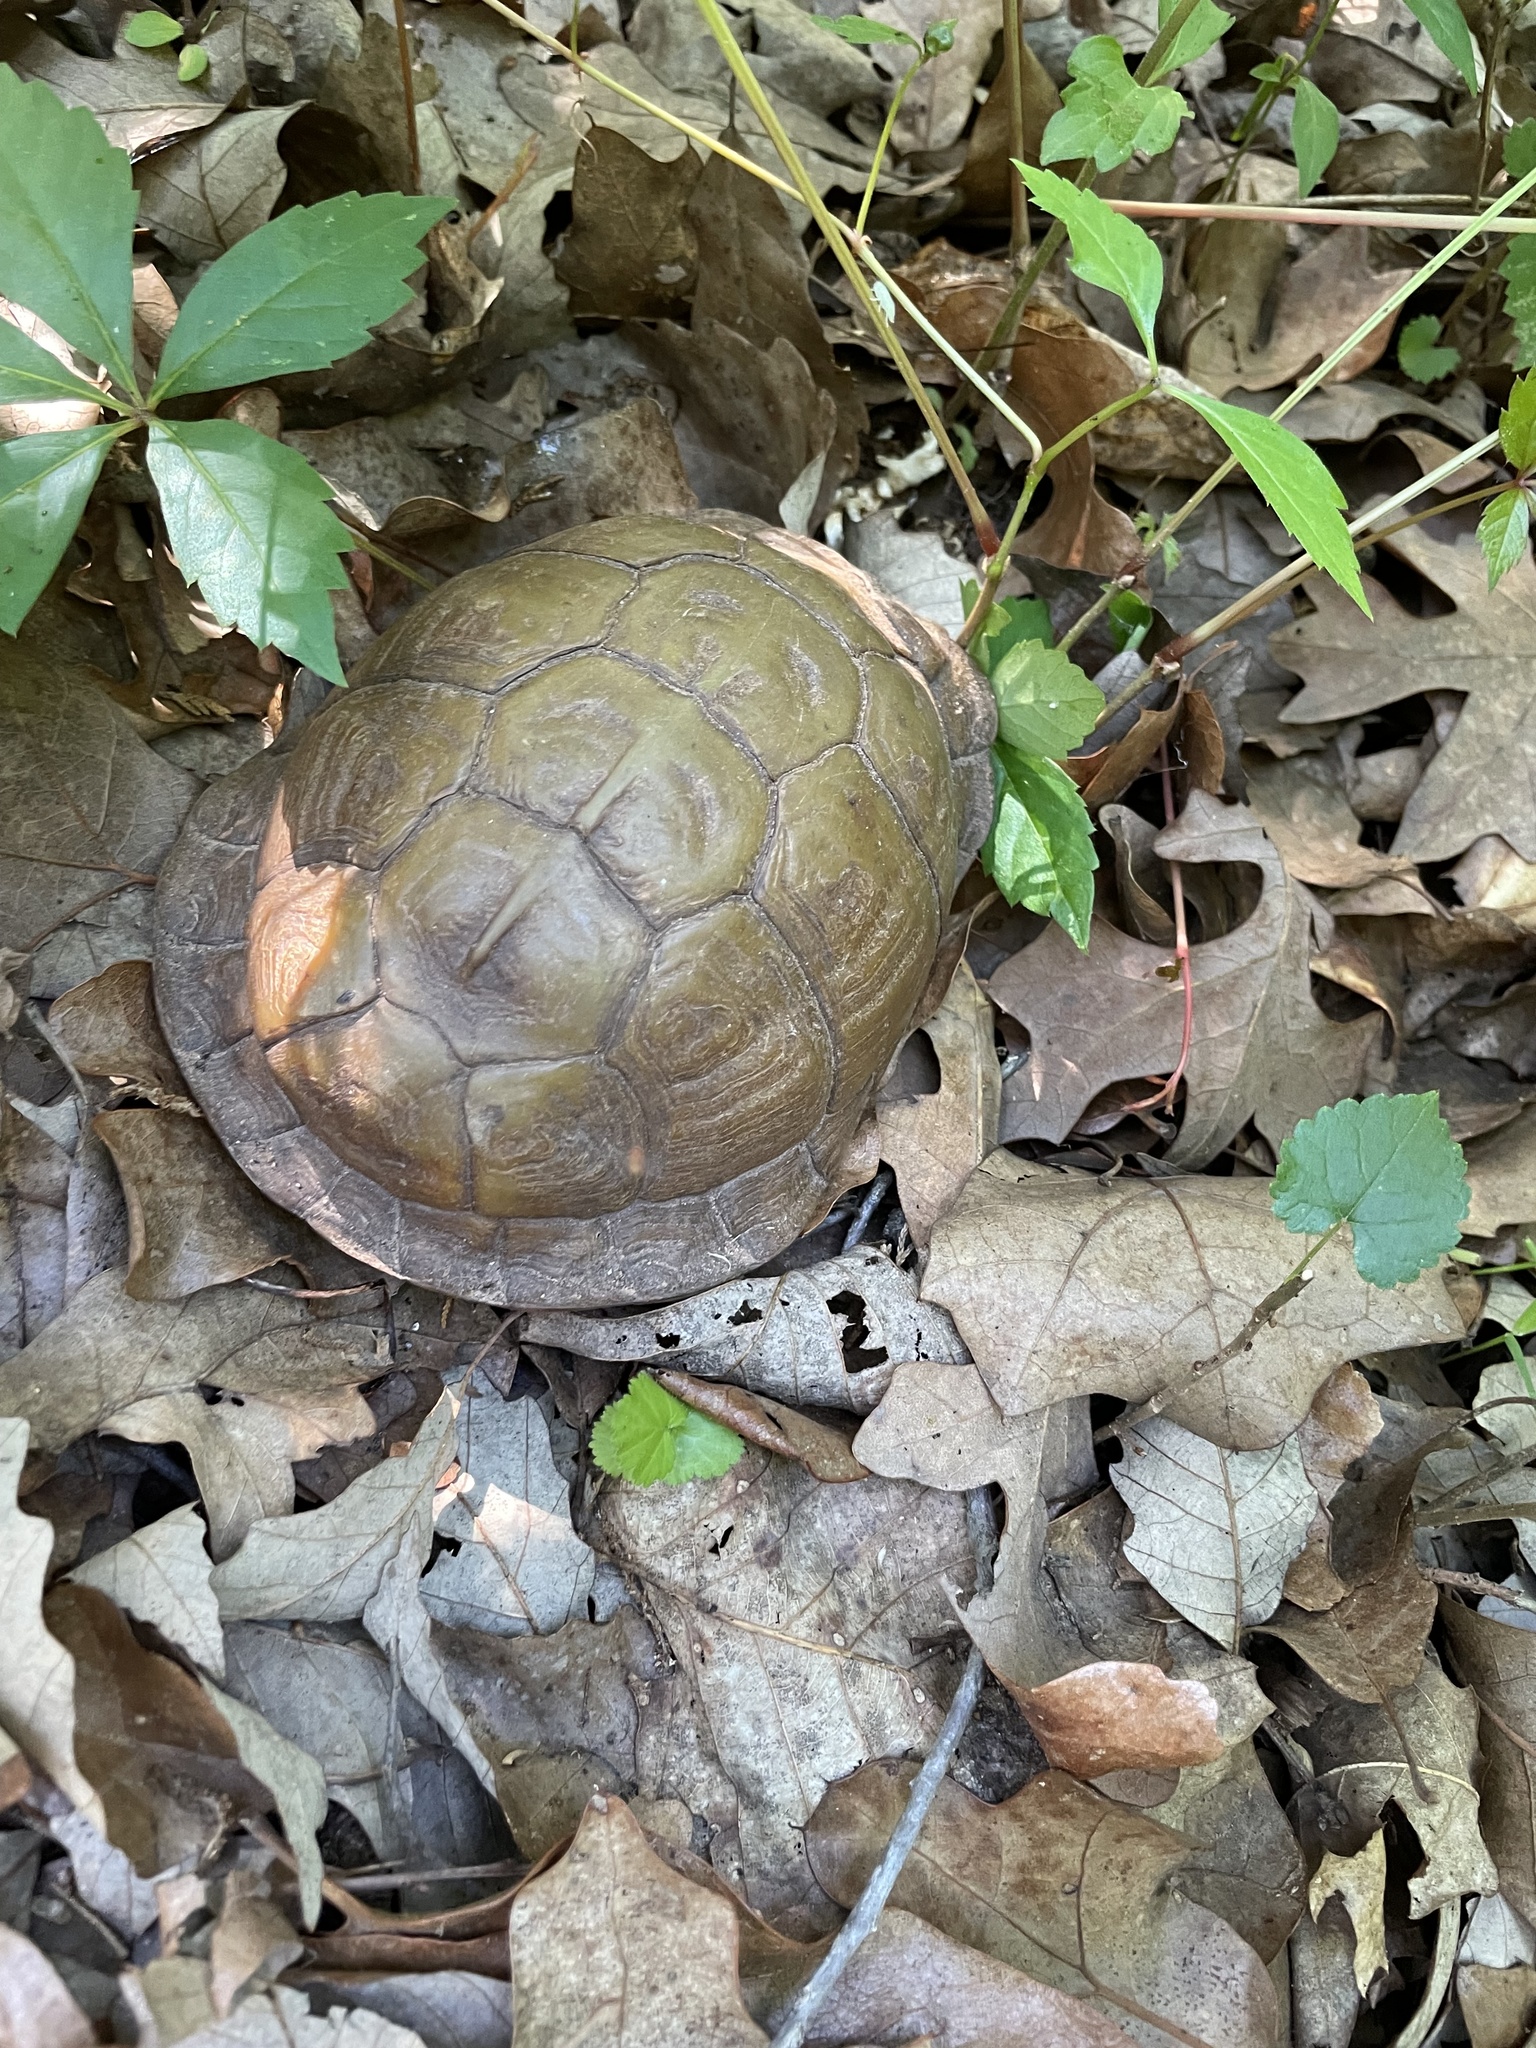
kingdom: Animalia
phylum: Chordata
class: Testudines
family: Emydidae
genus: Terrapene
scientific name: Terrapene carolina
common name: Common box turtle
